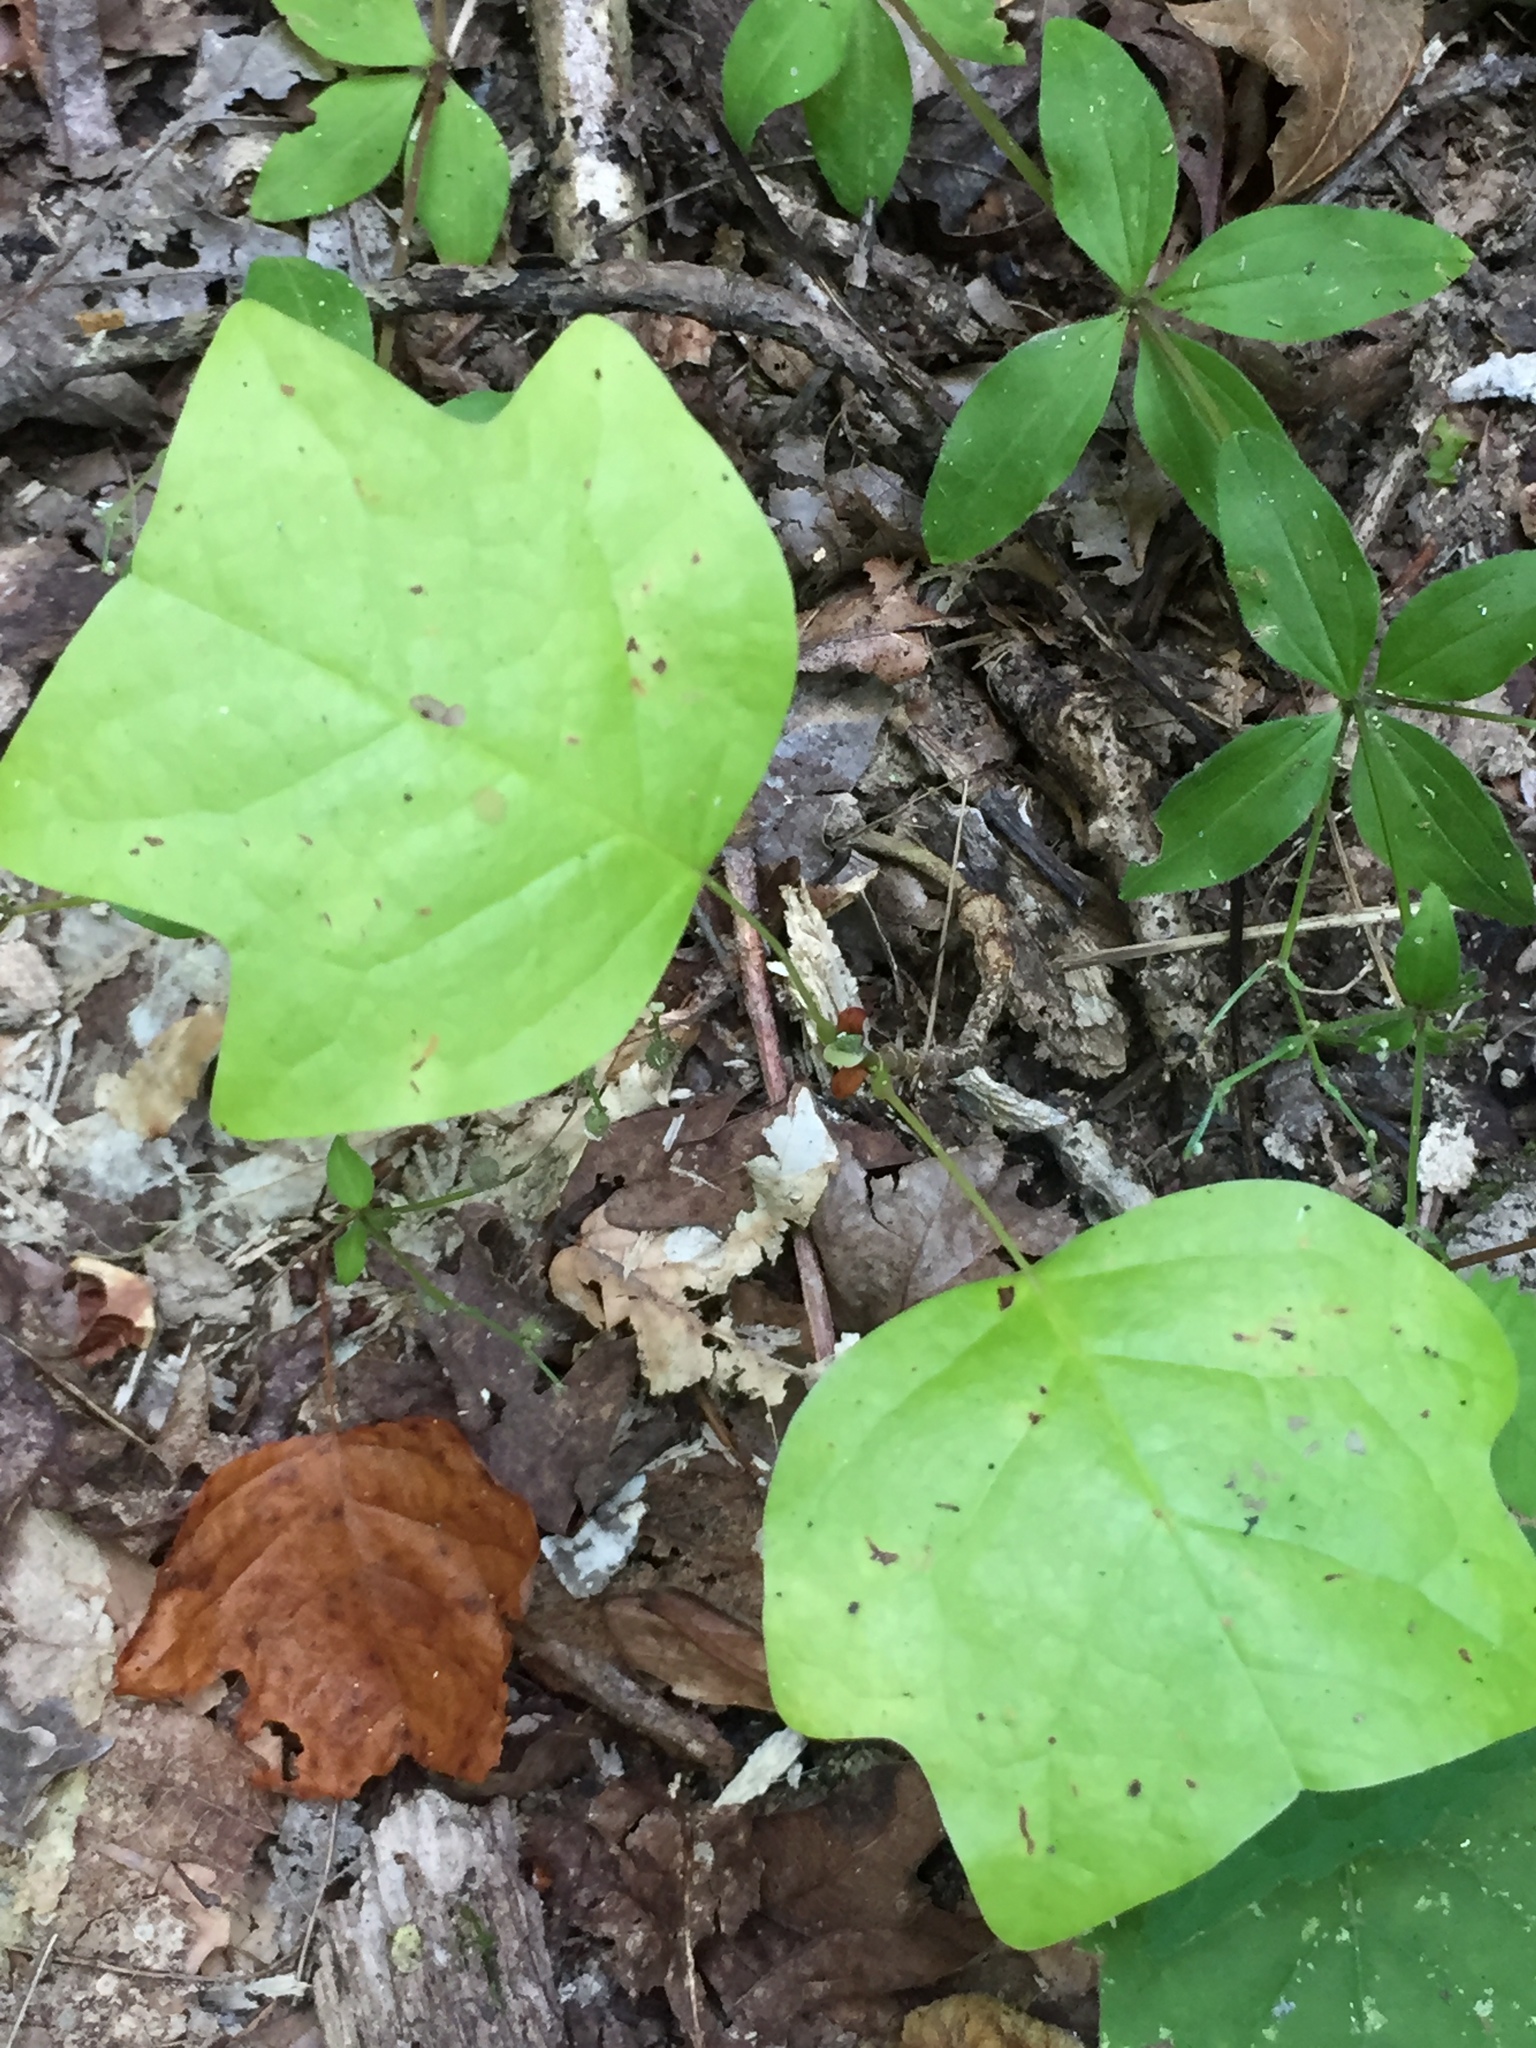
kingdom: Plantae
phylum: Tracheophyta
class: Magnoliopsida
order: Magnoliales
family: Magnoliaceae
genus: Liriodendron
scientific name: Liriodendron tulipifera
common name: Tulip tree
